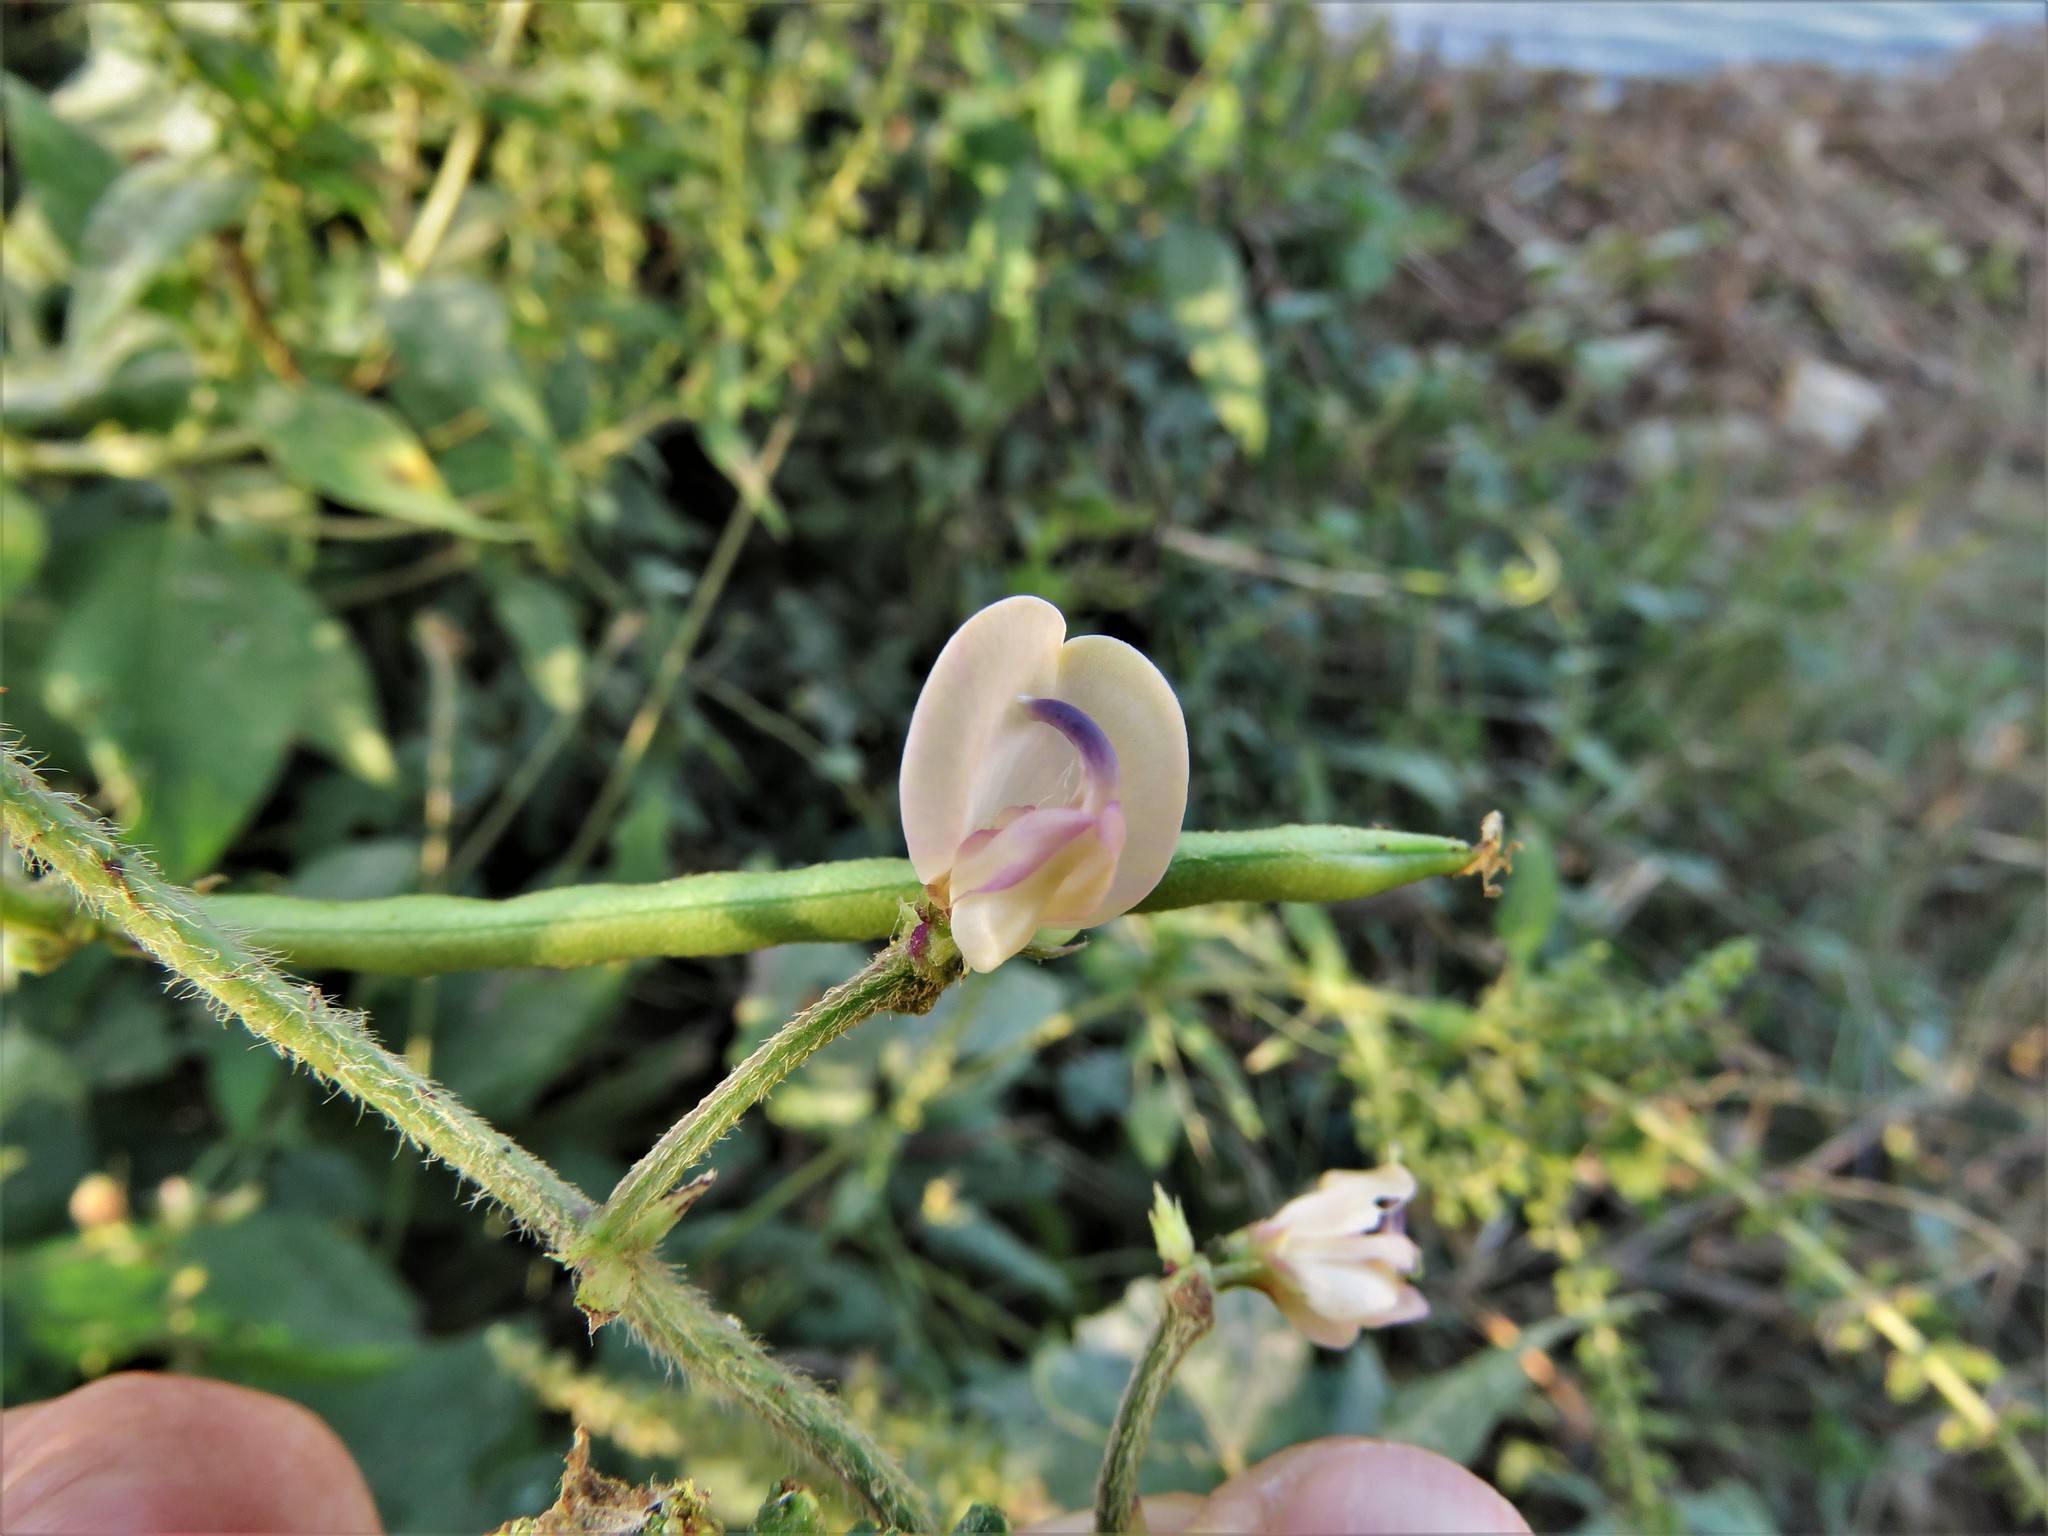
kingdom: Plantae
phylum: Tracheophyta
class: Magnoliopsida
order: Fabales
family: Fabaceae
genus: Strophostyles
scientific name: Strophostyles helvola
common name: Trailing wild bean
